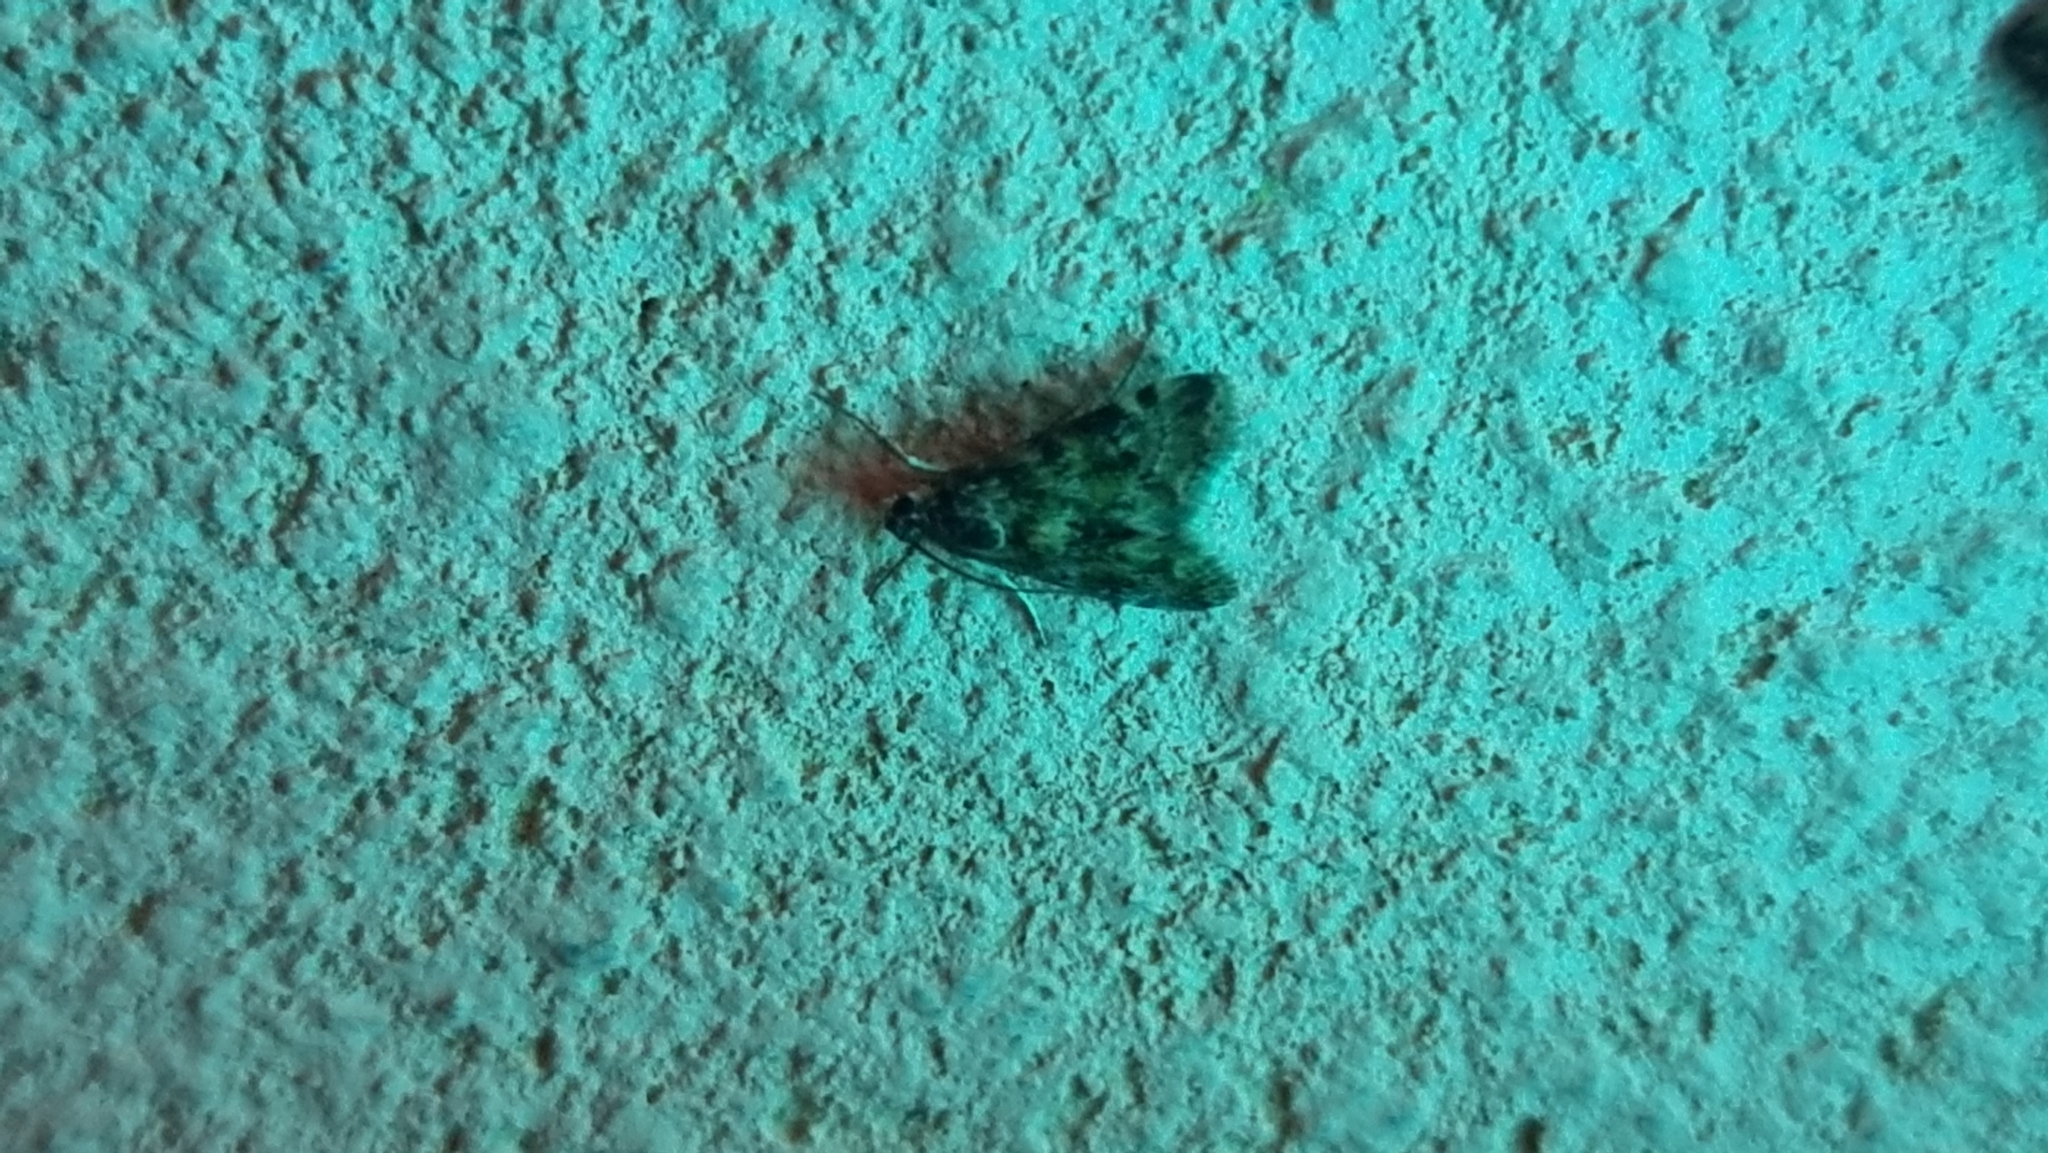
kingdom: Animalia
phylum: Arthropoda
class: Insecta
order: Lepidoptera
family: Crambidae
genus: Noctuelia
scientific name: Noctuelia Aporodes floralis
